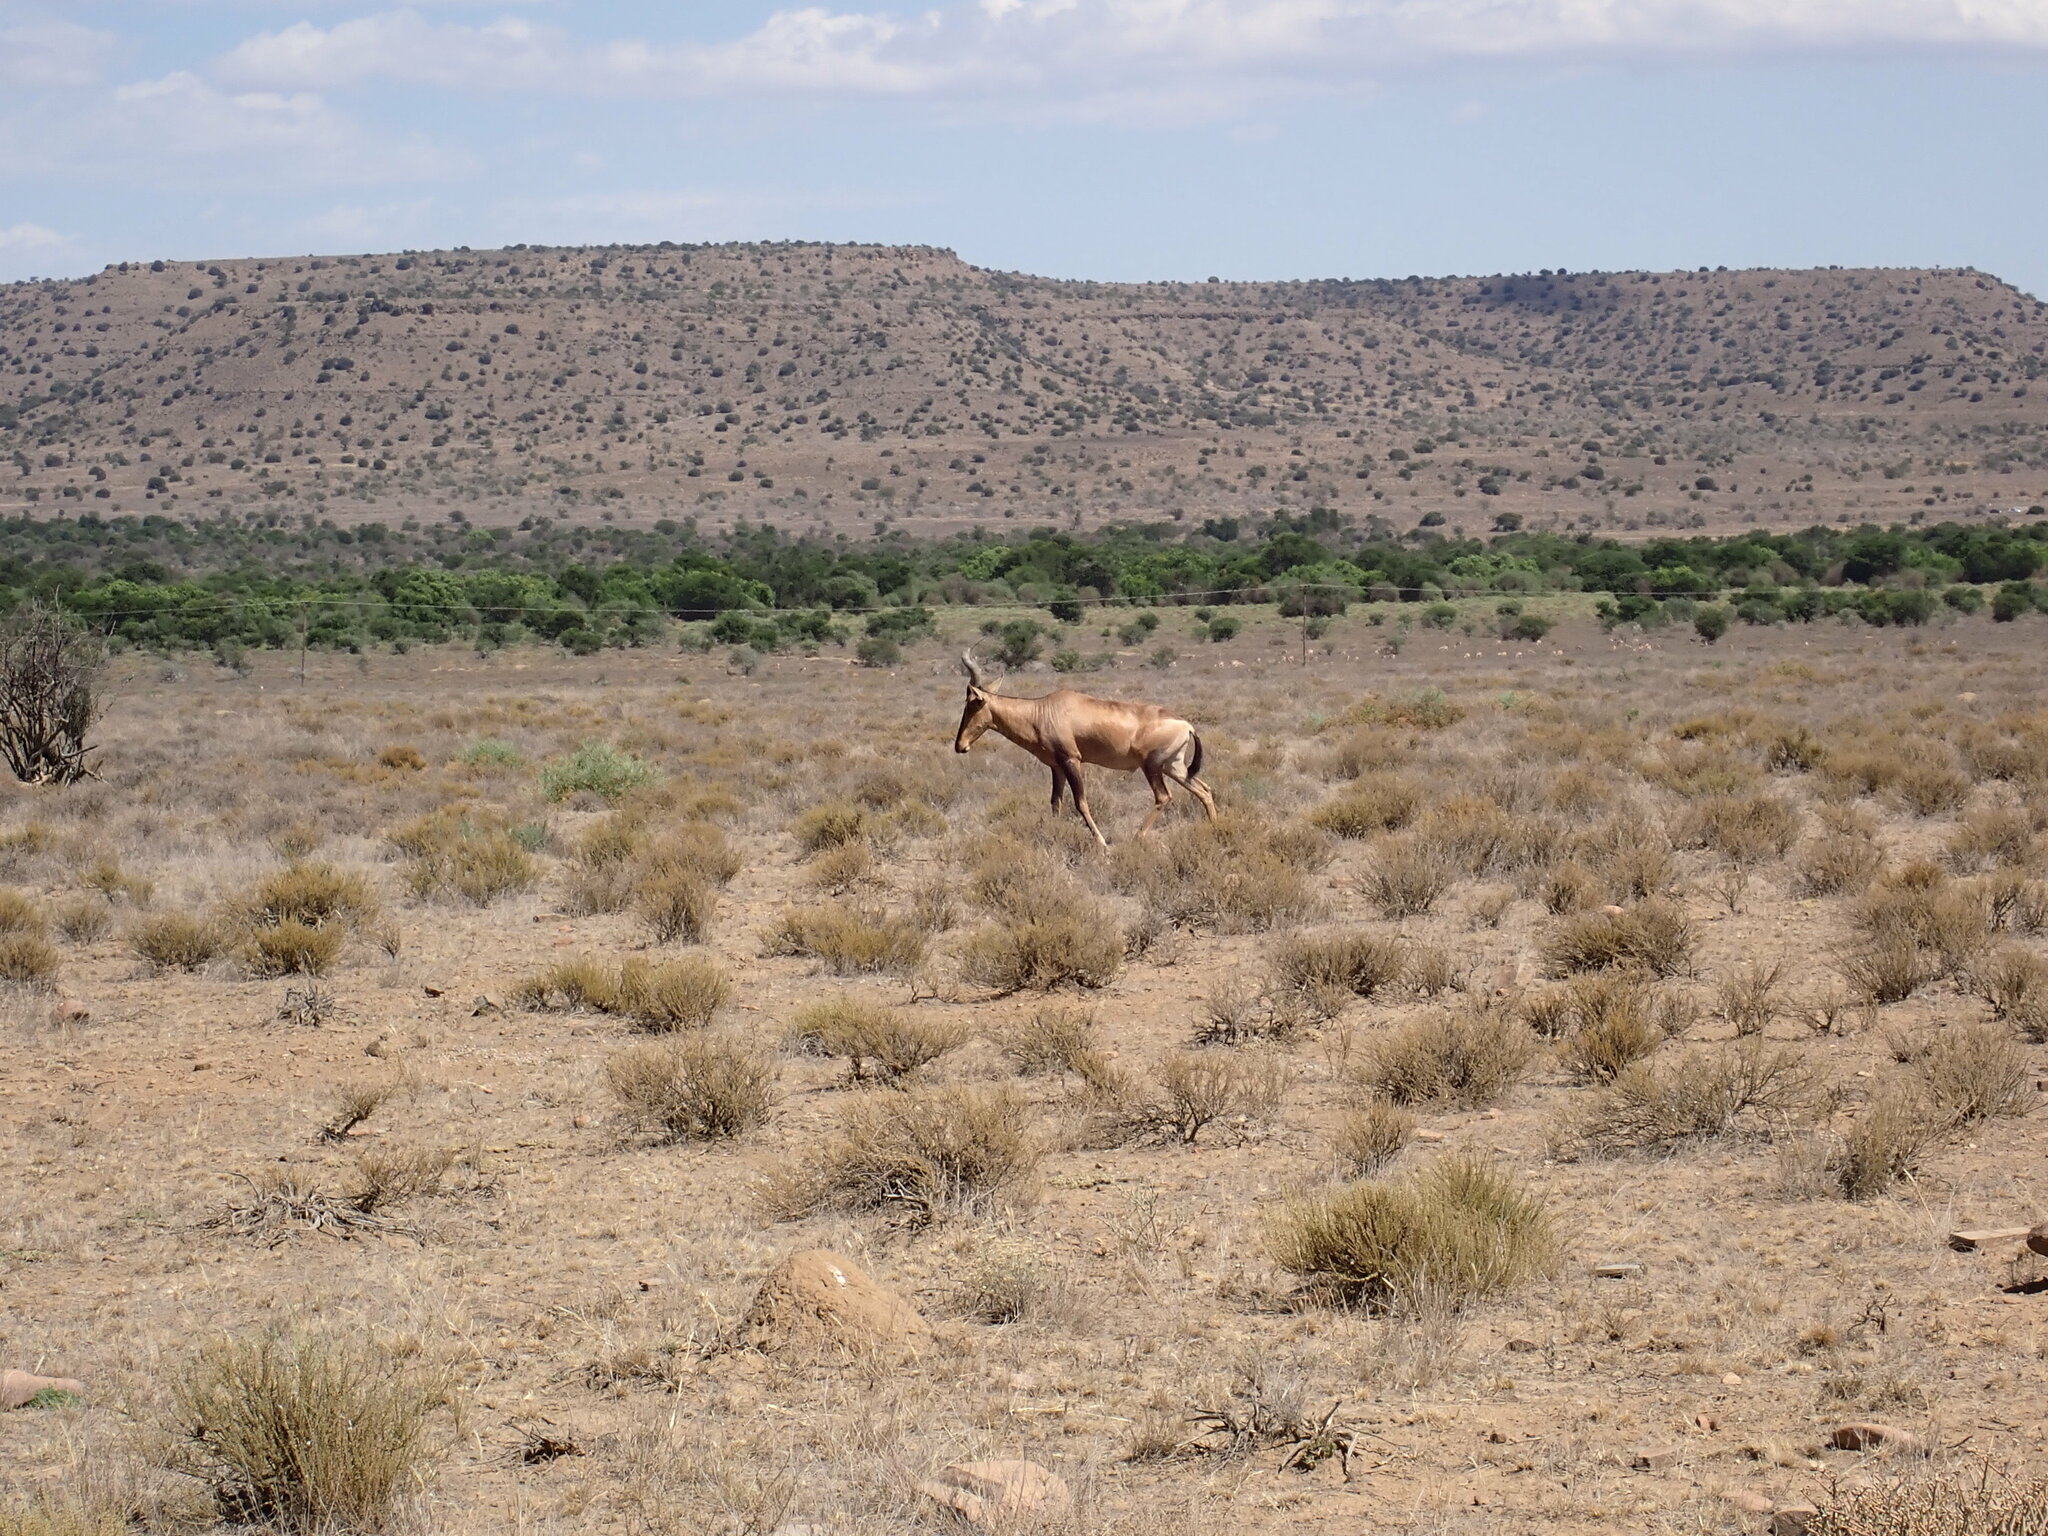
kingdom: Animalia
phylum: Chordata
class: Mammalia
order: Artiodactyla
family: Bovidae
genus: Alcelaphus
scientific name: Alcelaphus caama
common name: Red hartebeest
